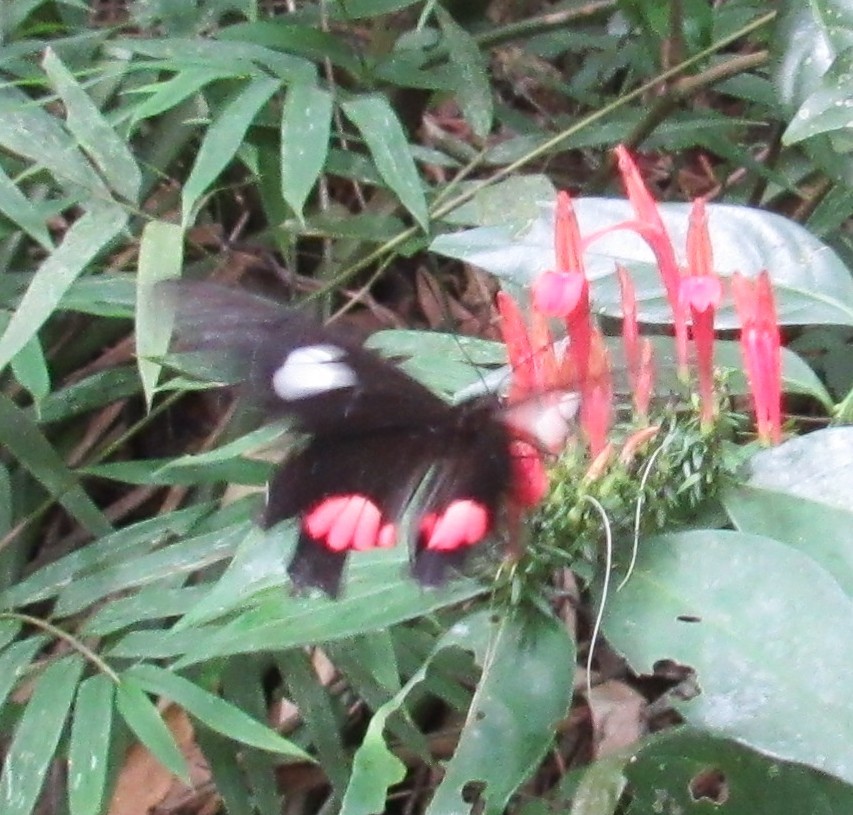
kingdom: Animalia
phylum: Arthropoda
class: Insecta
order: Lepidoptera
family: Papilionidae
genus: Parides
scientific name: Parides anchises
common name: Cattle heart
